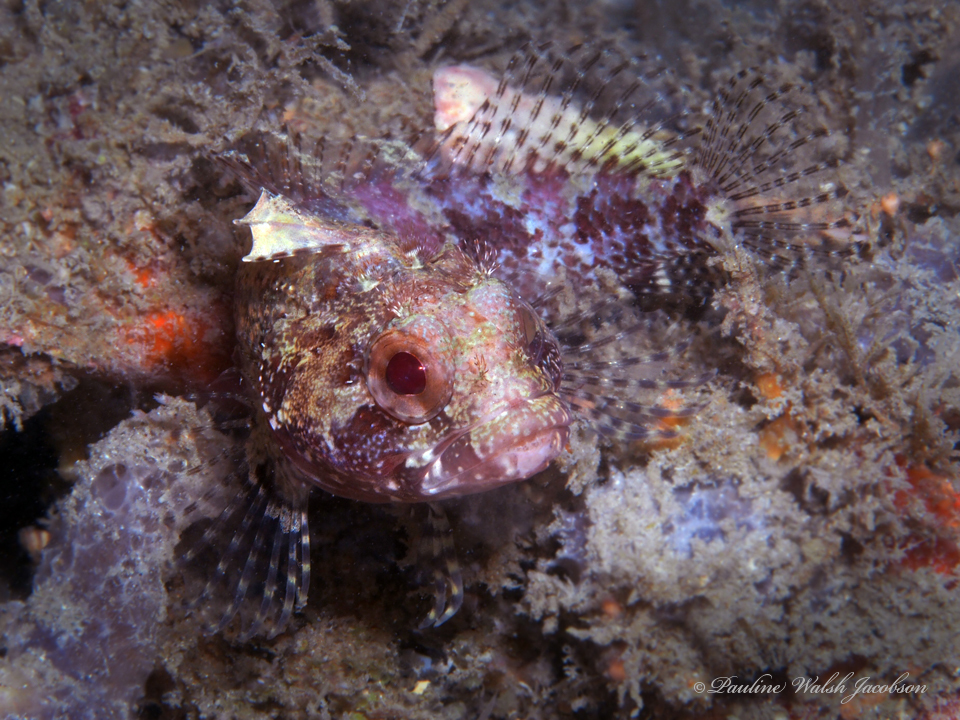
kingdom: Animalia
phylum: Chordata
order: Perciformes
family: Labrisomidae
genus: Gobioclinus
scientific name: Gobioclinus kalisherae
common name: Downy blenny
